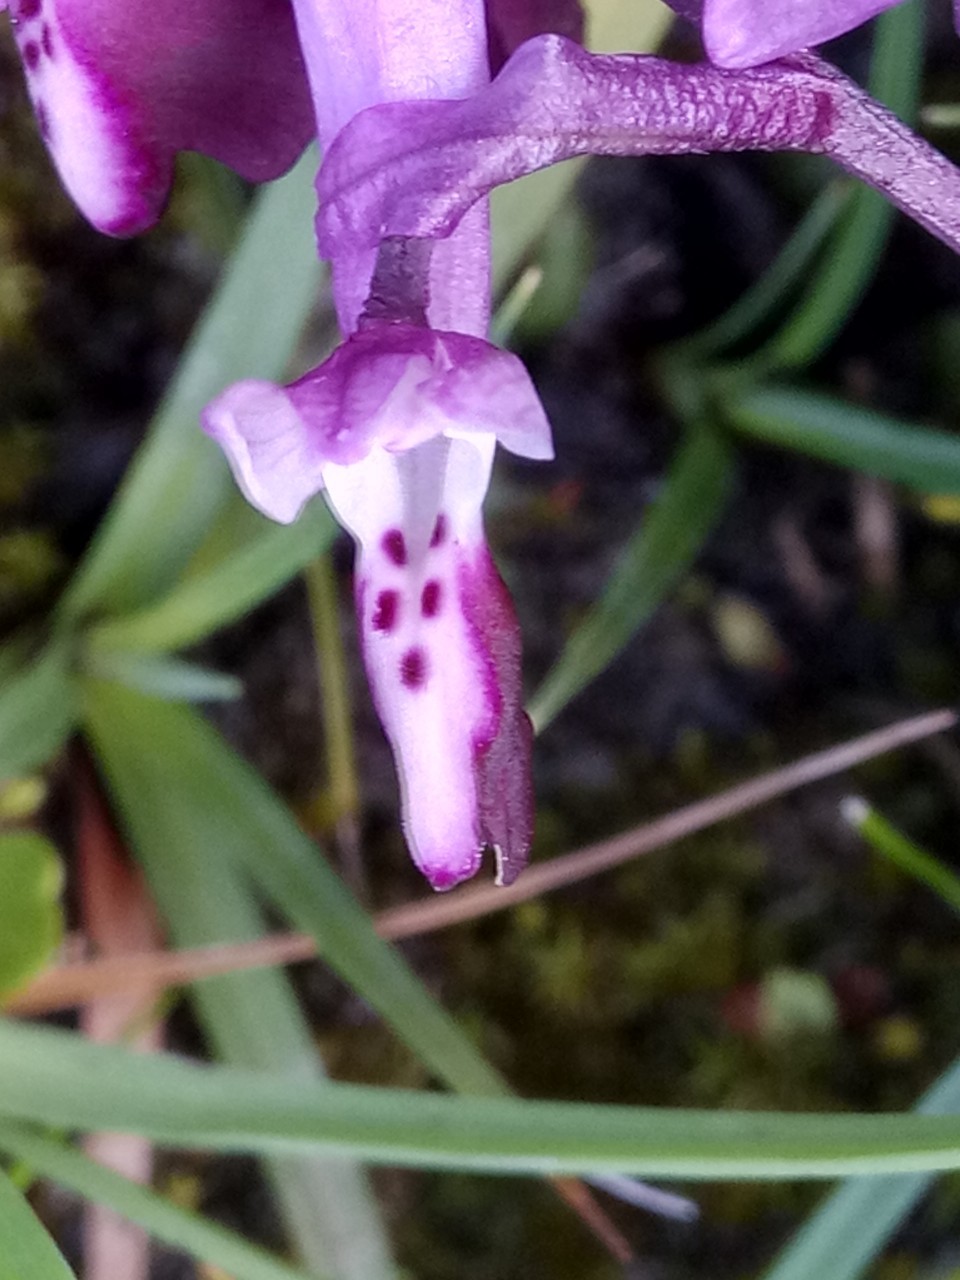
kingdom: Plantae
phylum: Tracheophyta
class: Liliopsida
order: Asparagales
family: Orchidaceae
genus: Anacamptis
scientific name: Anacamptis morio
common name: Green-winged orchid
